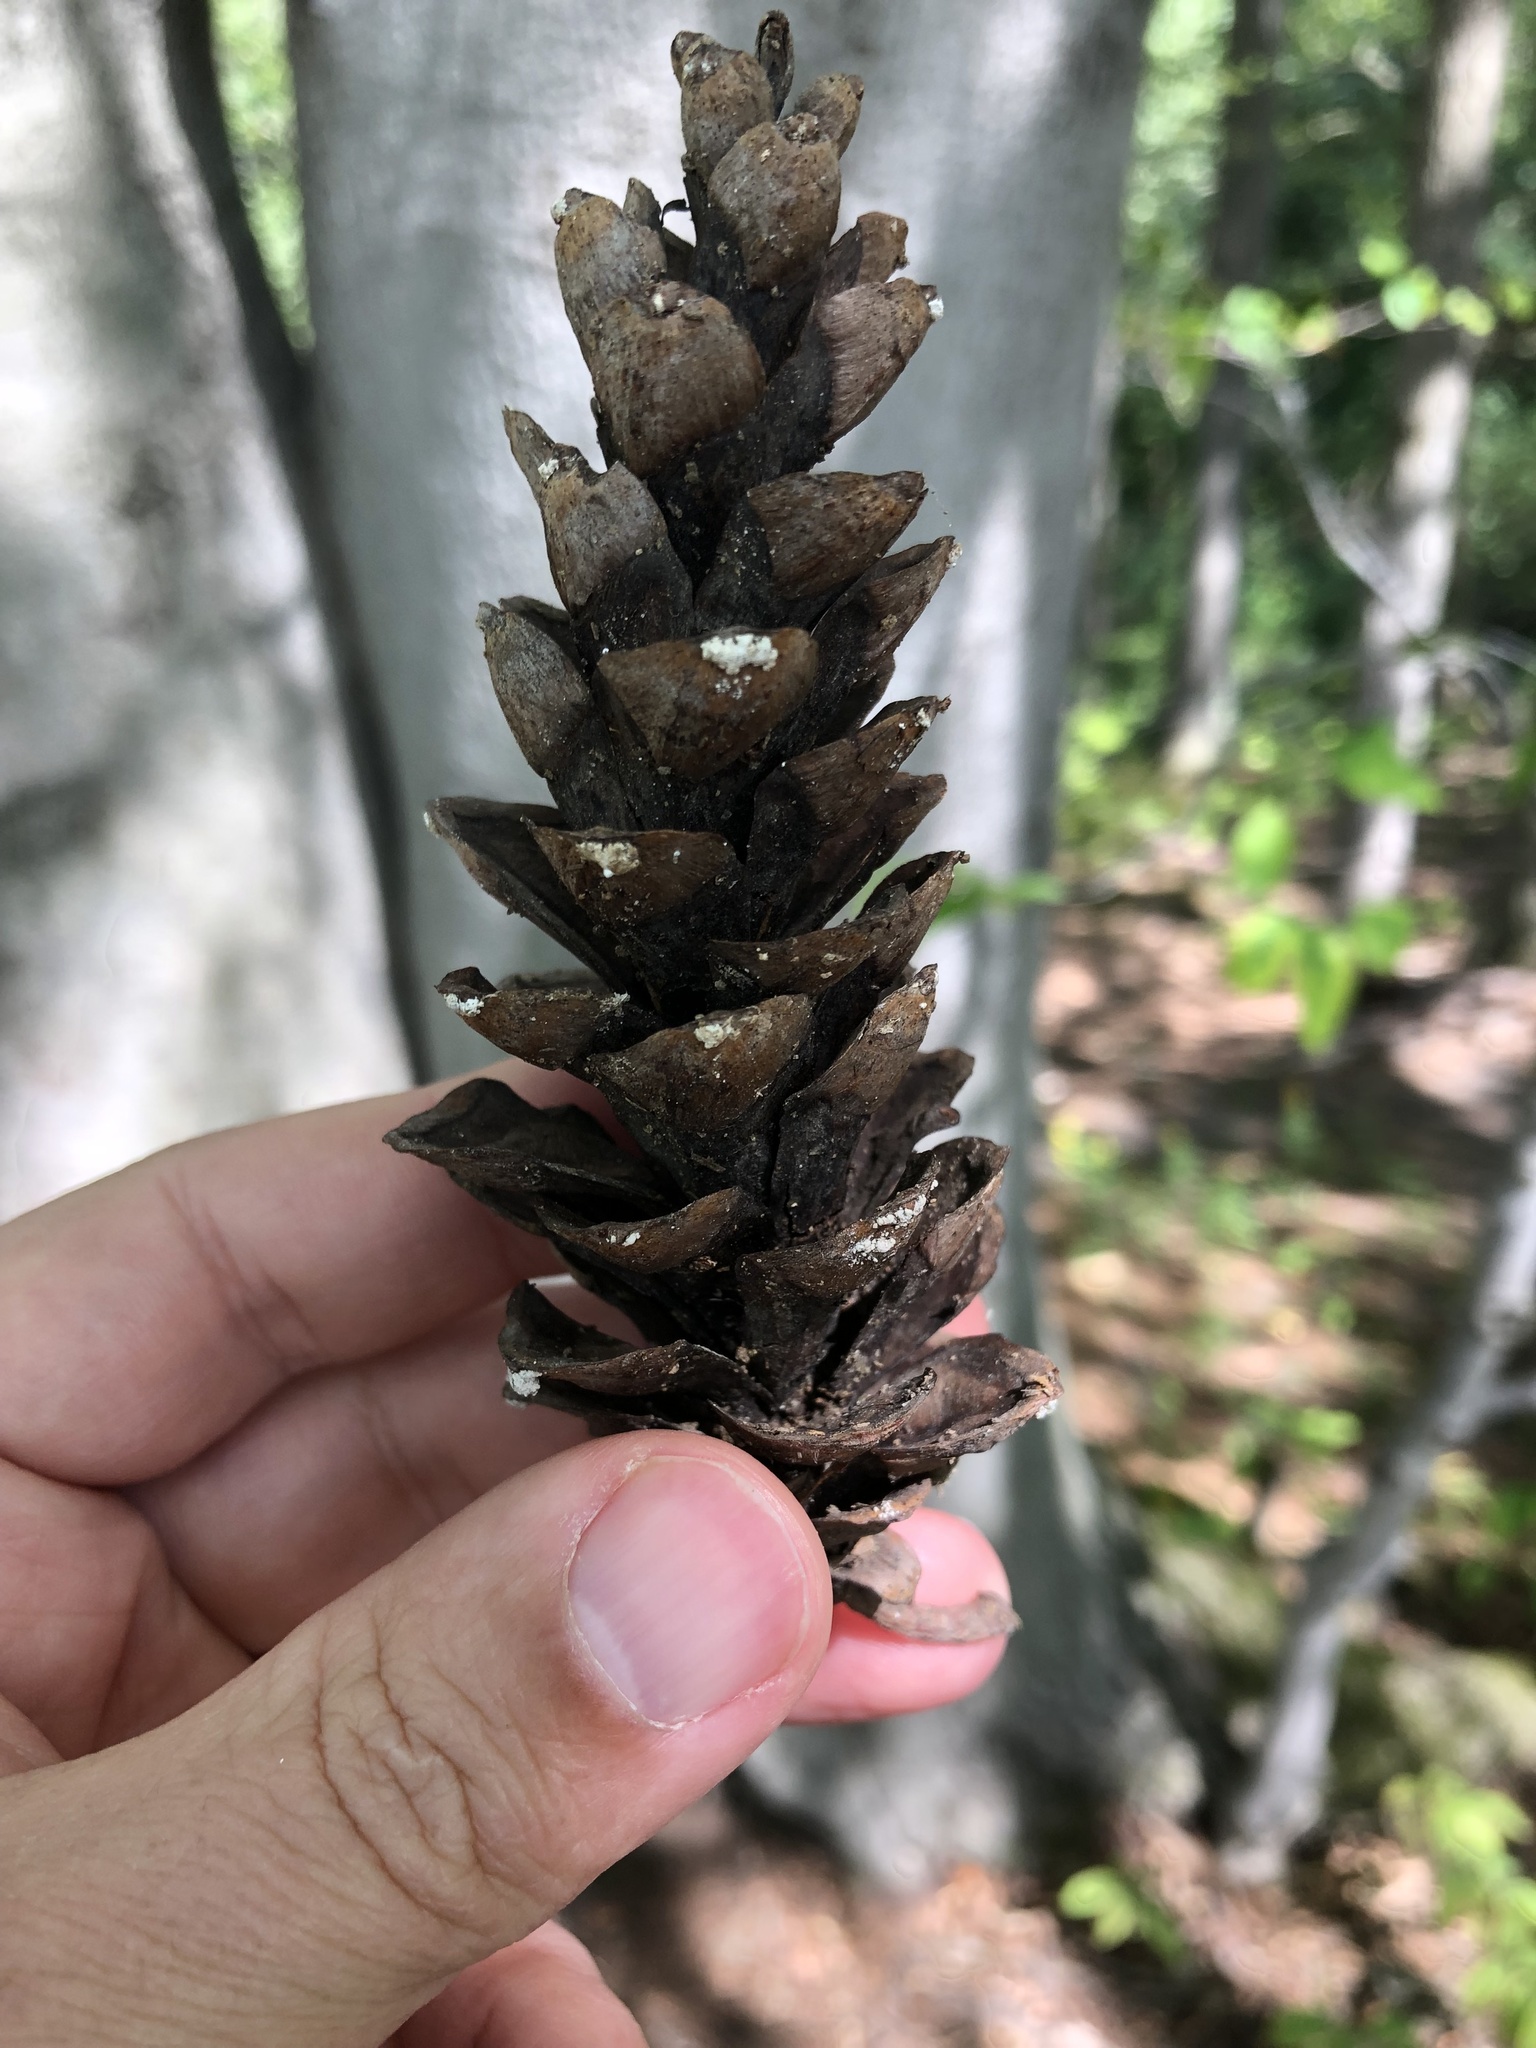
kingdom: Plantae
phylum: Tracheophyta
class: Pinopsida
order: Pinales
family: Pinaceae
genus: Pinus
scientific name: Pinus strobus
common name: Weymouth pine
